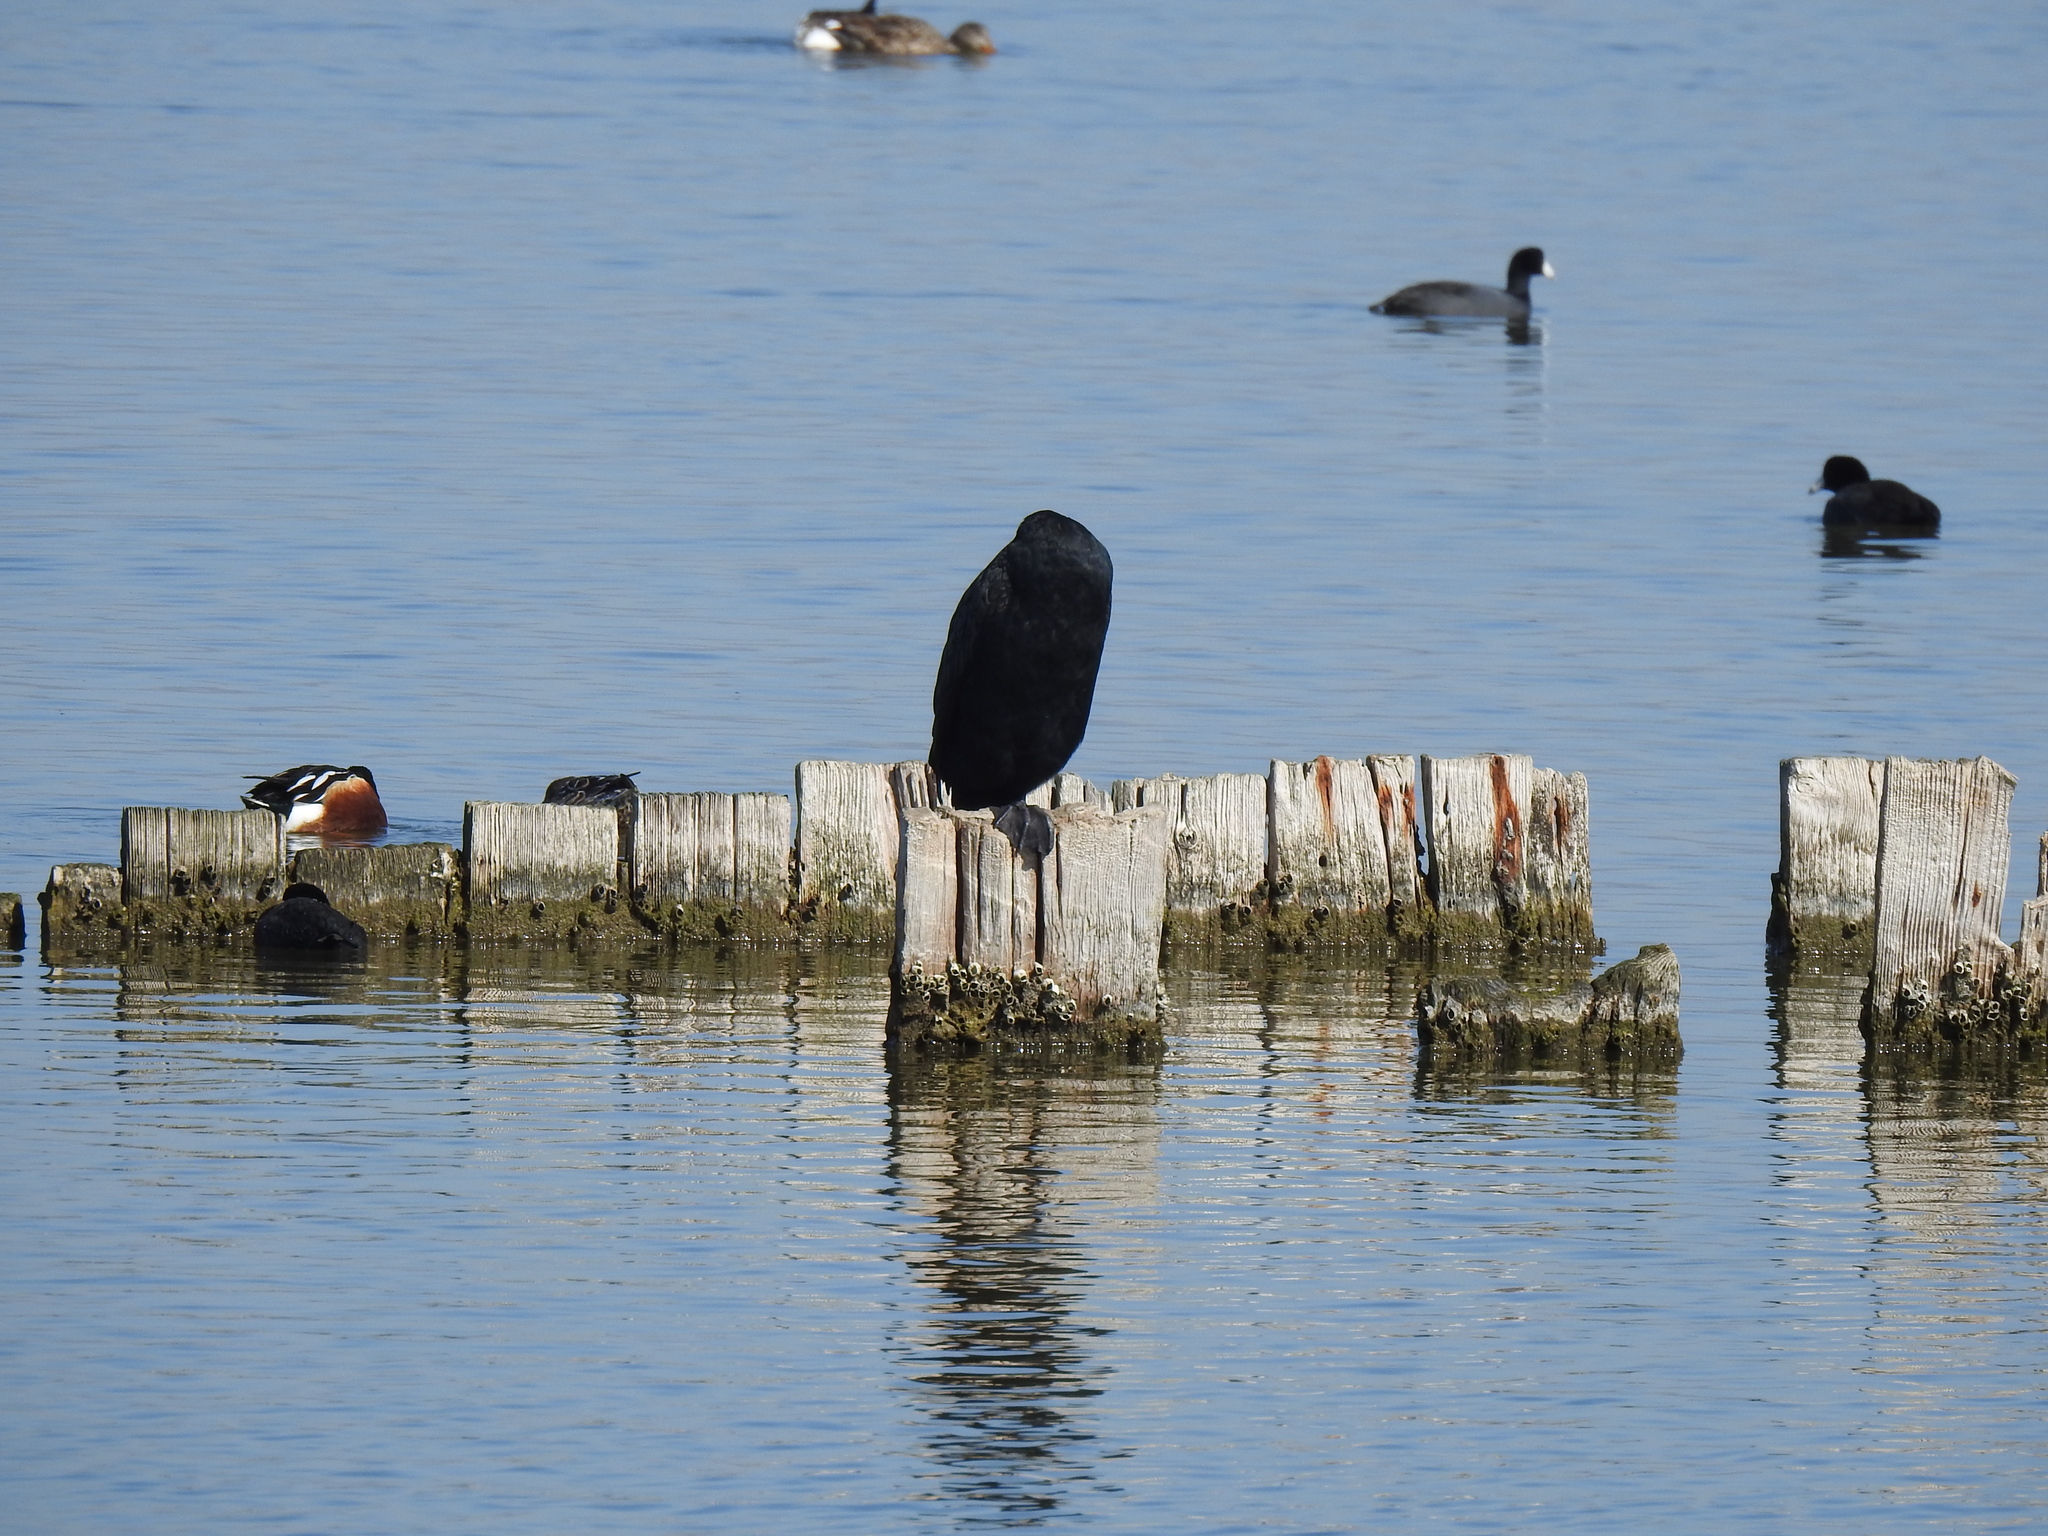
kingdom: Animalia
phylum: Chordata
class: Aves
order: Suliformes
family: Phalacrocoracidae
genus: Phalacrocorax
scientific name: Phalacrocorax auritus
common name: Double-crested cormorant
